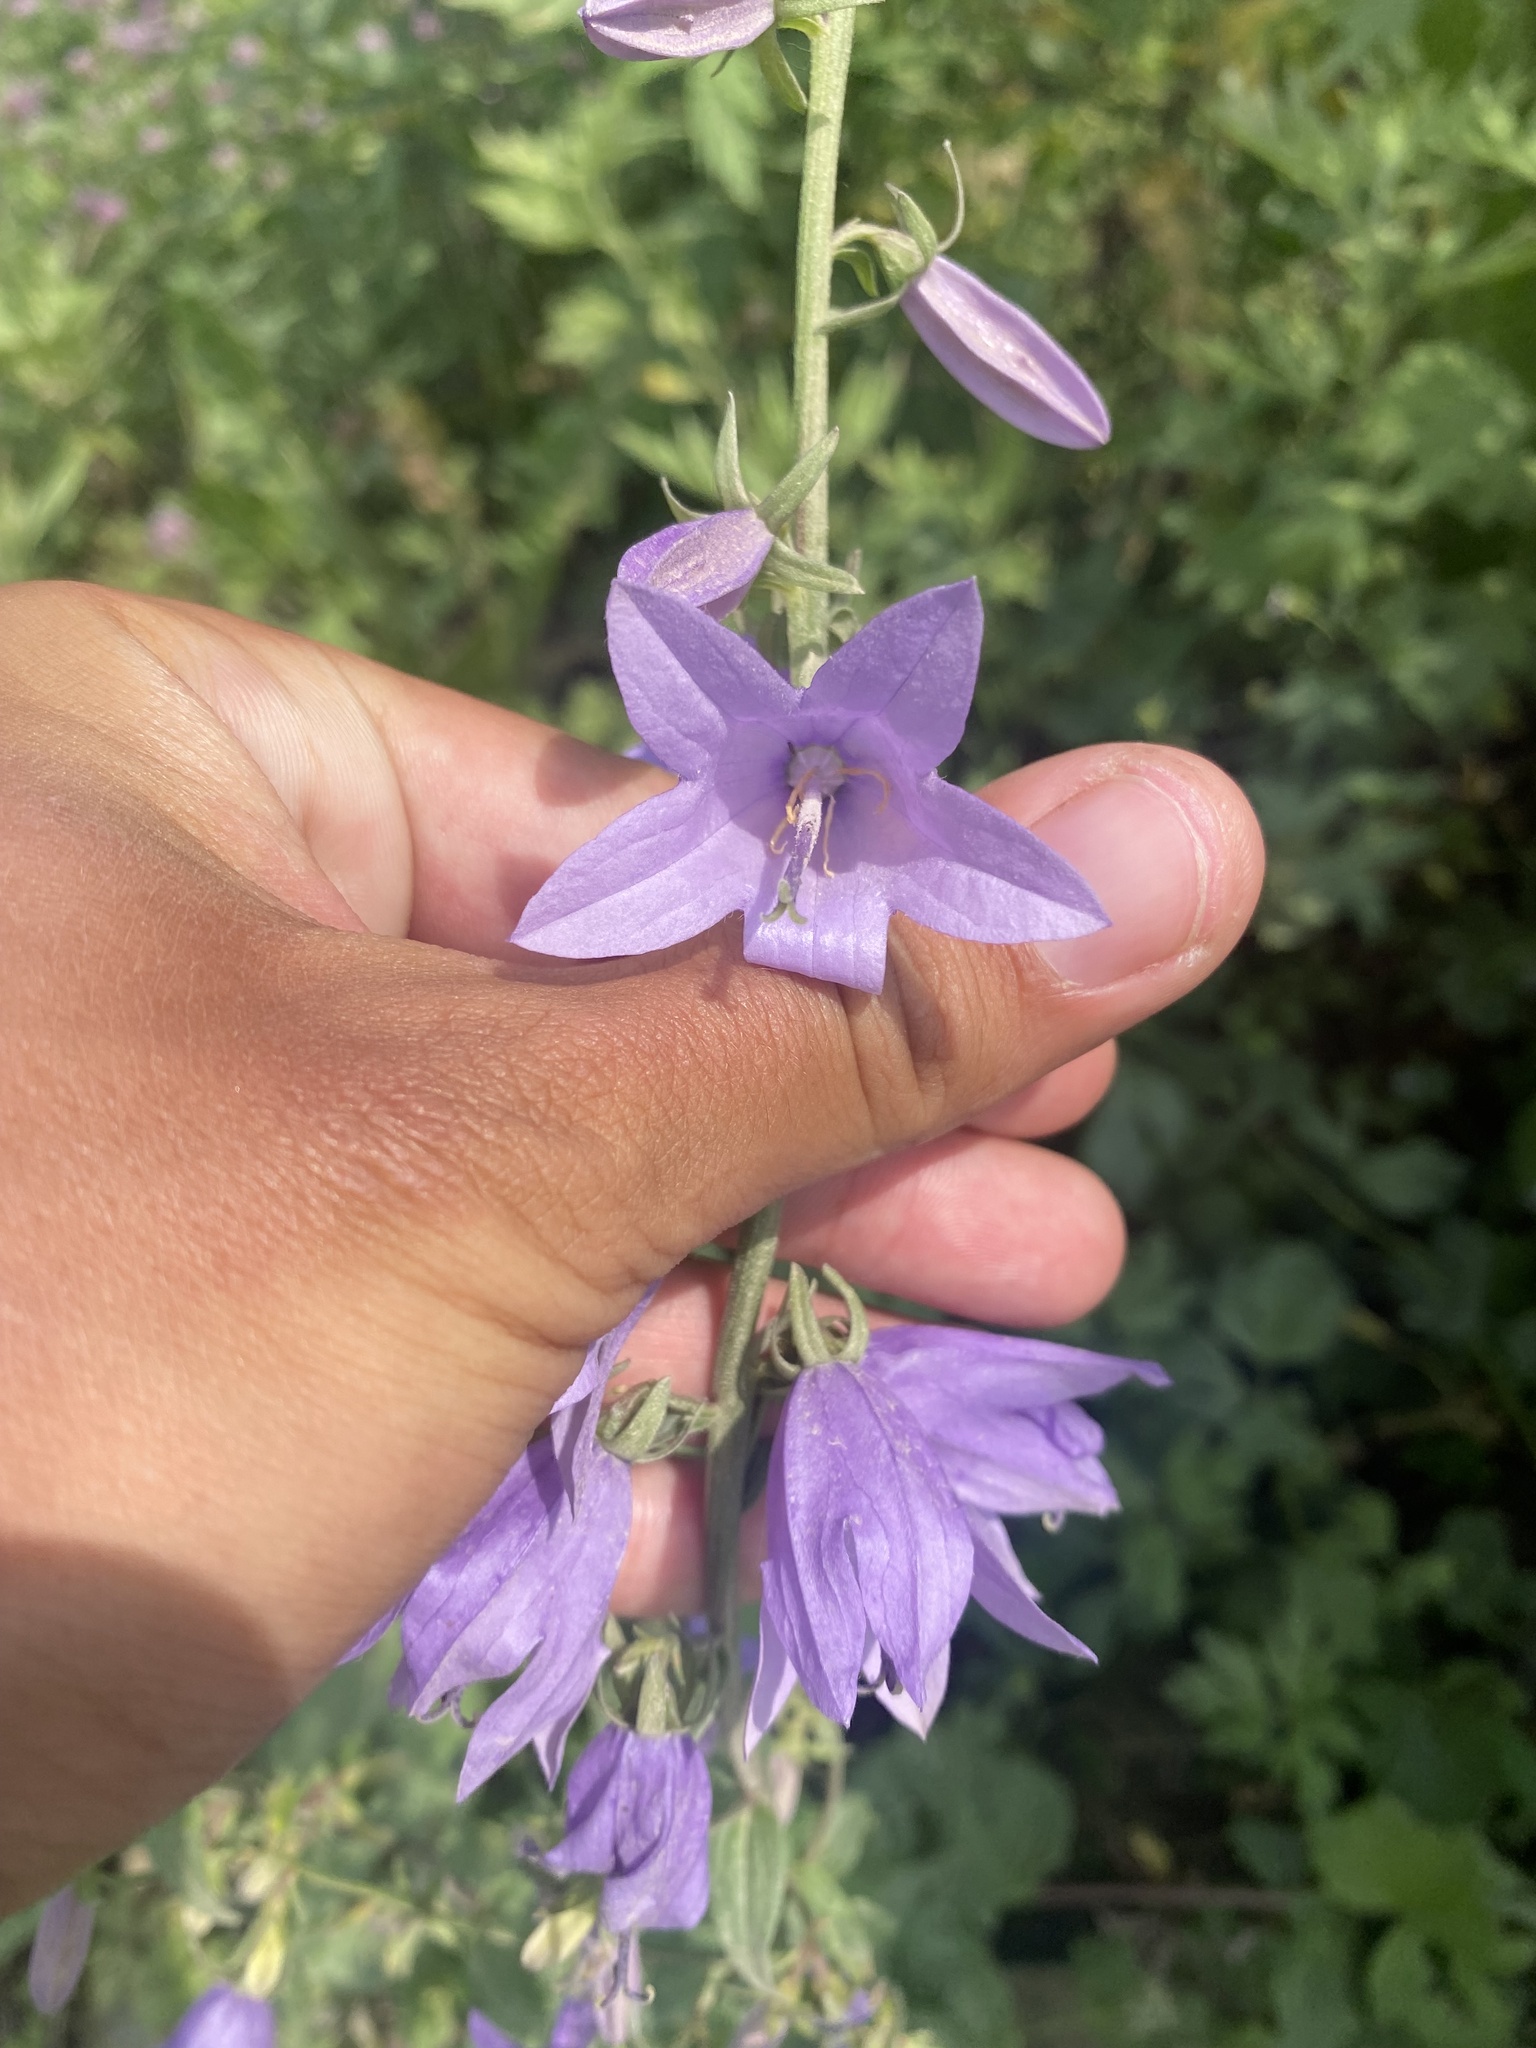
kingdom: Plantae
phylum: Tracheophyta
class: Magnoliopsida
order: Asterales
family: Campanulaceae
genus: Campanula
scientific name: Campanula rapunculoides
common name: Creeping bellflower
